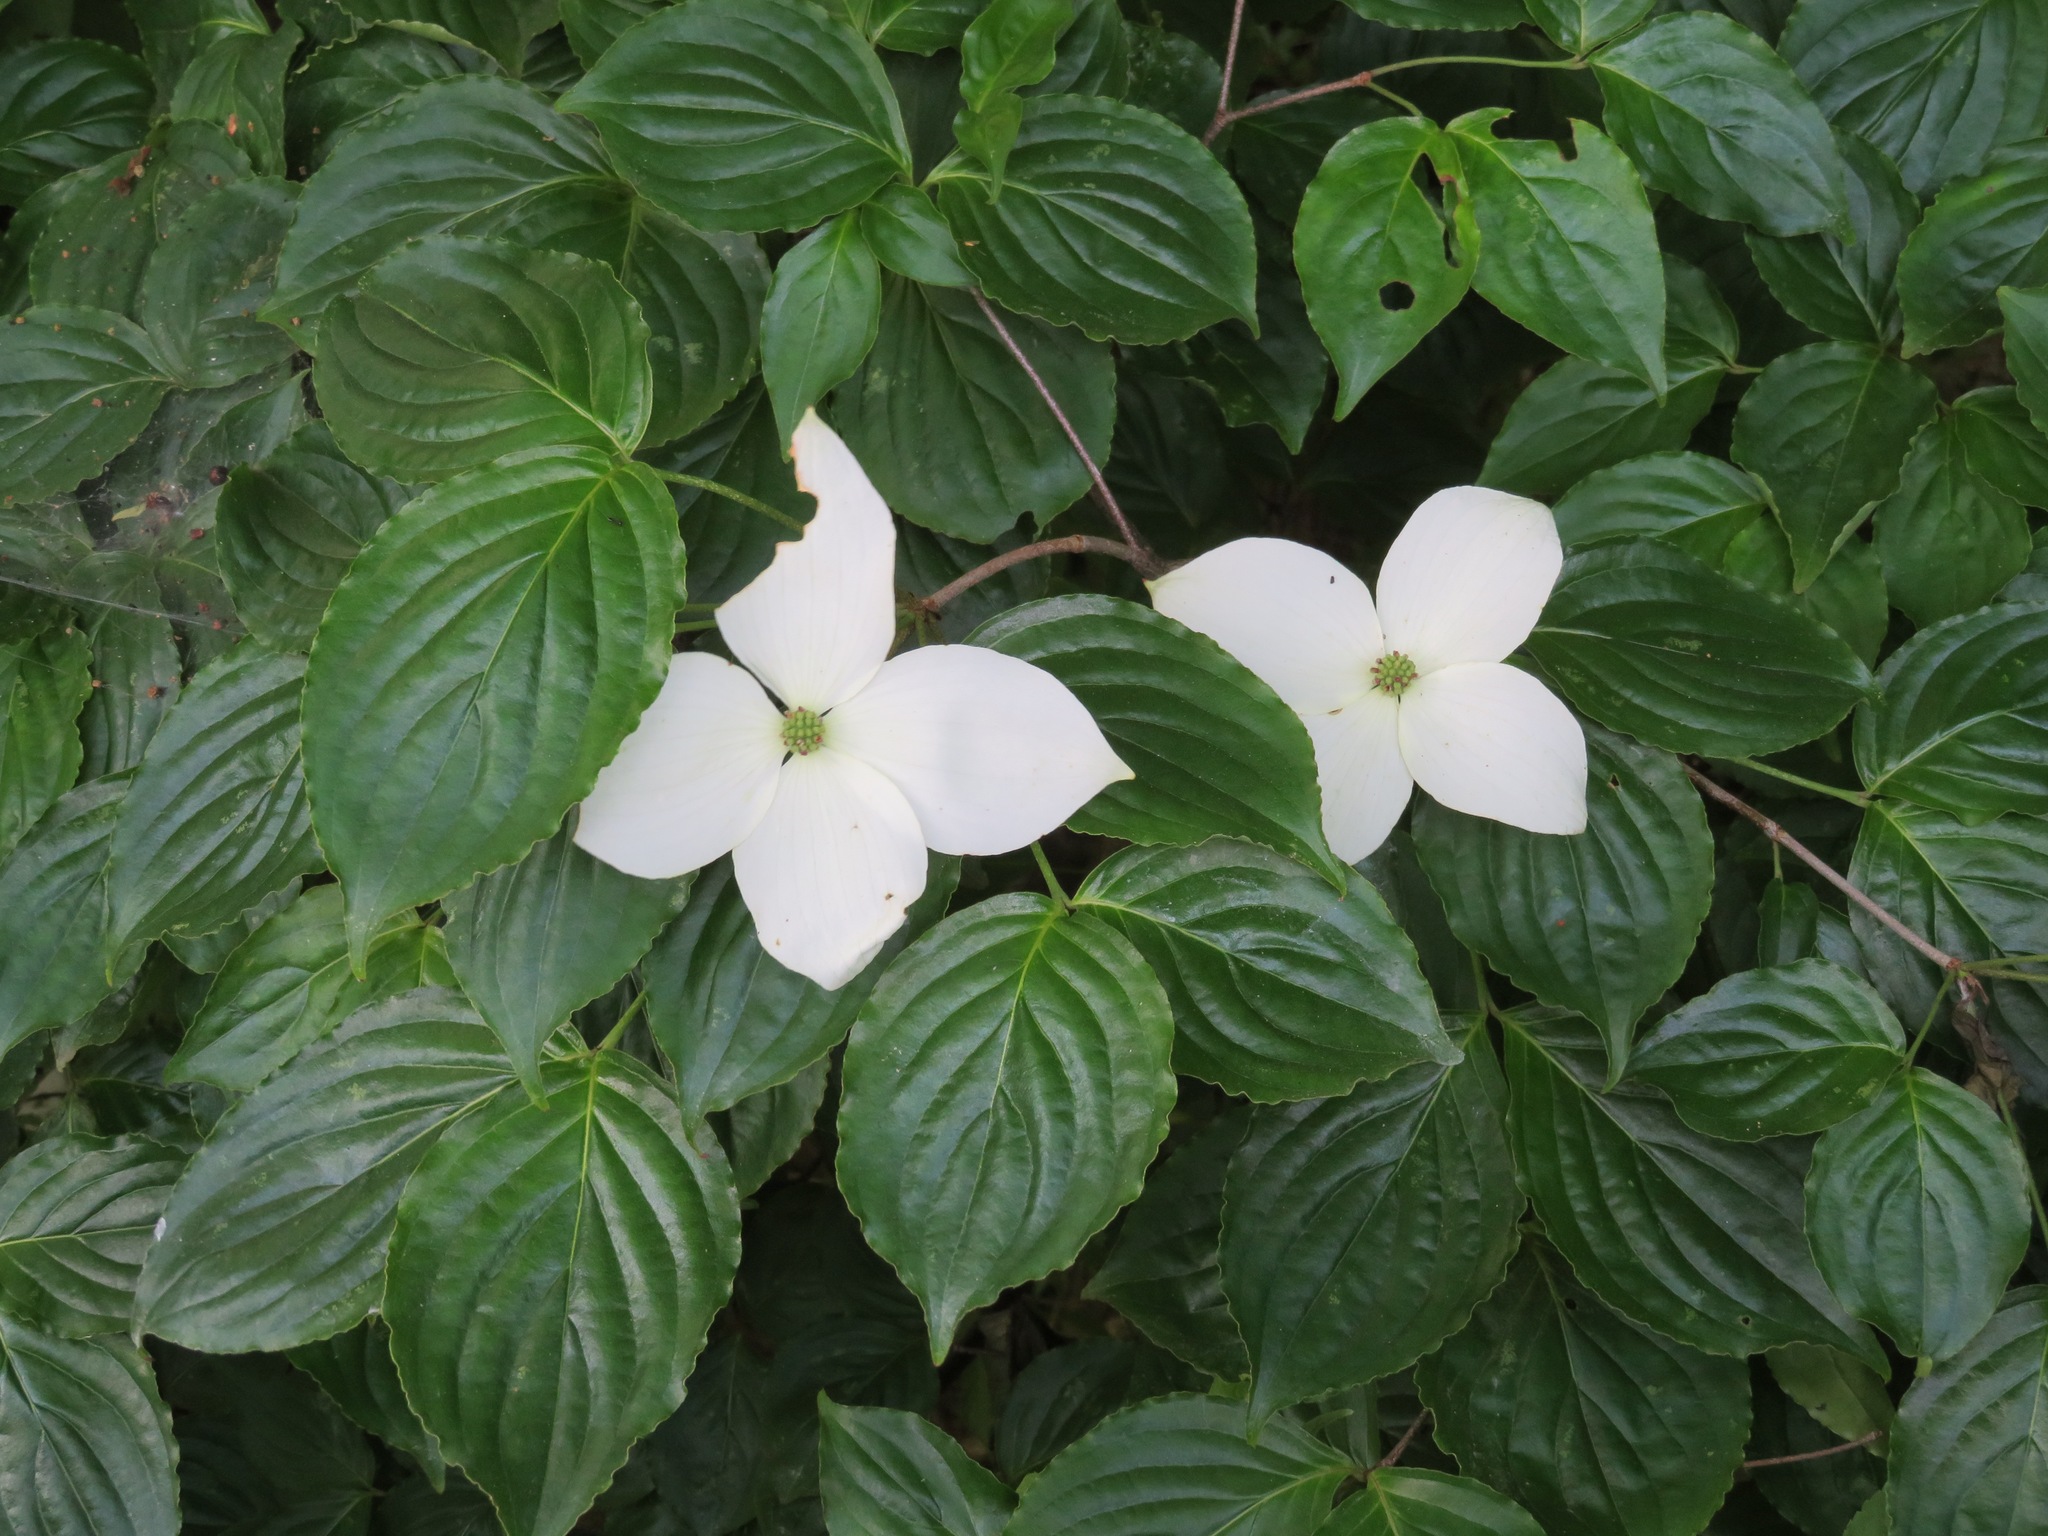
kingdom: Plantae
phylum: Tracheophyta
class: Magnoliopsida
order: Cornales
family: Cornaceae
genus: Cornus
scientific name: Cornus kousa
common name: Japanese dogwood
